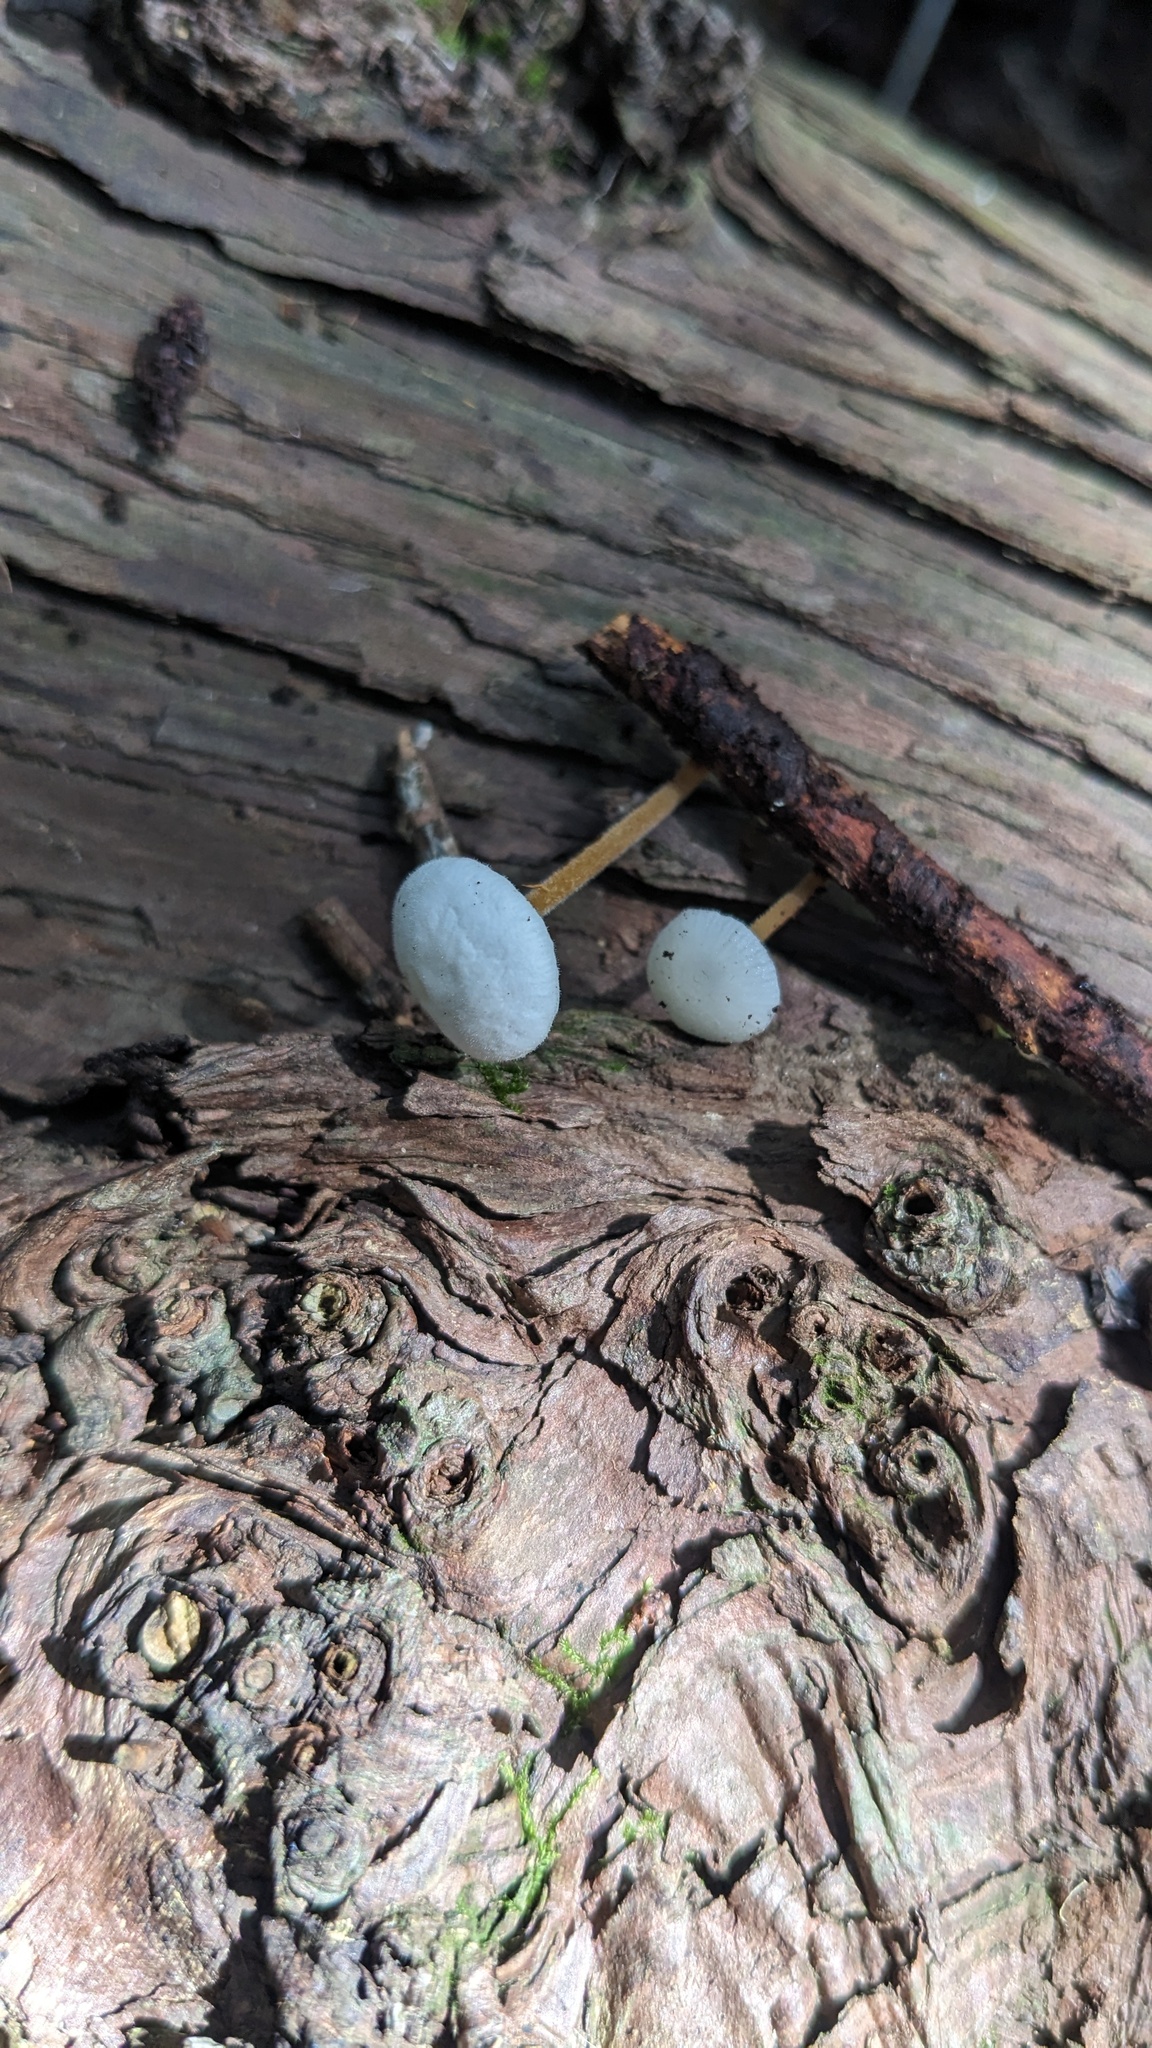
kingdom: Fungi
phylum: Basidiomycota
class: Agaricomycetes
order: Agaricales
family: Physalacriaceae
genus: Strobilurus
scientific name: Strobilurus ohshimae
